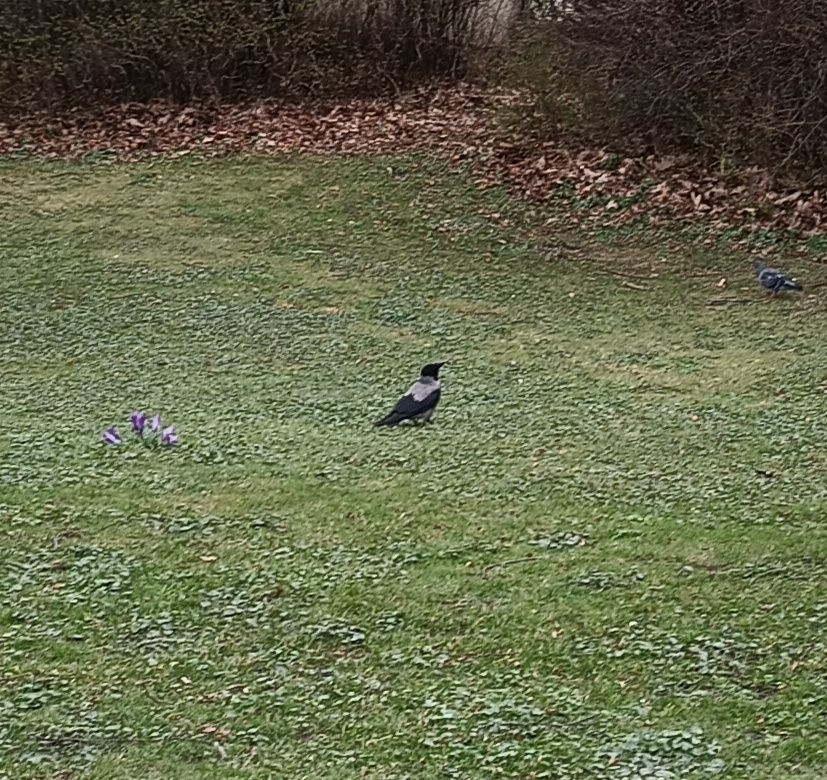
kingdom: Animalia
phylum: Chordata
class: Aves
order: Passeriformes
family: Corvidae
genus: Corvus
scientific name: Corvus cornix
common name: Hooded crow
